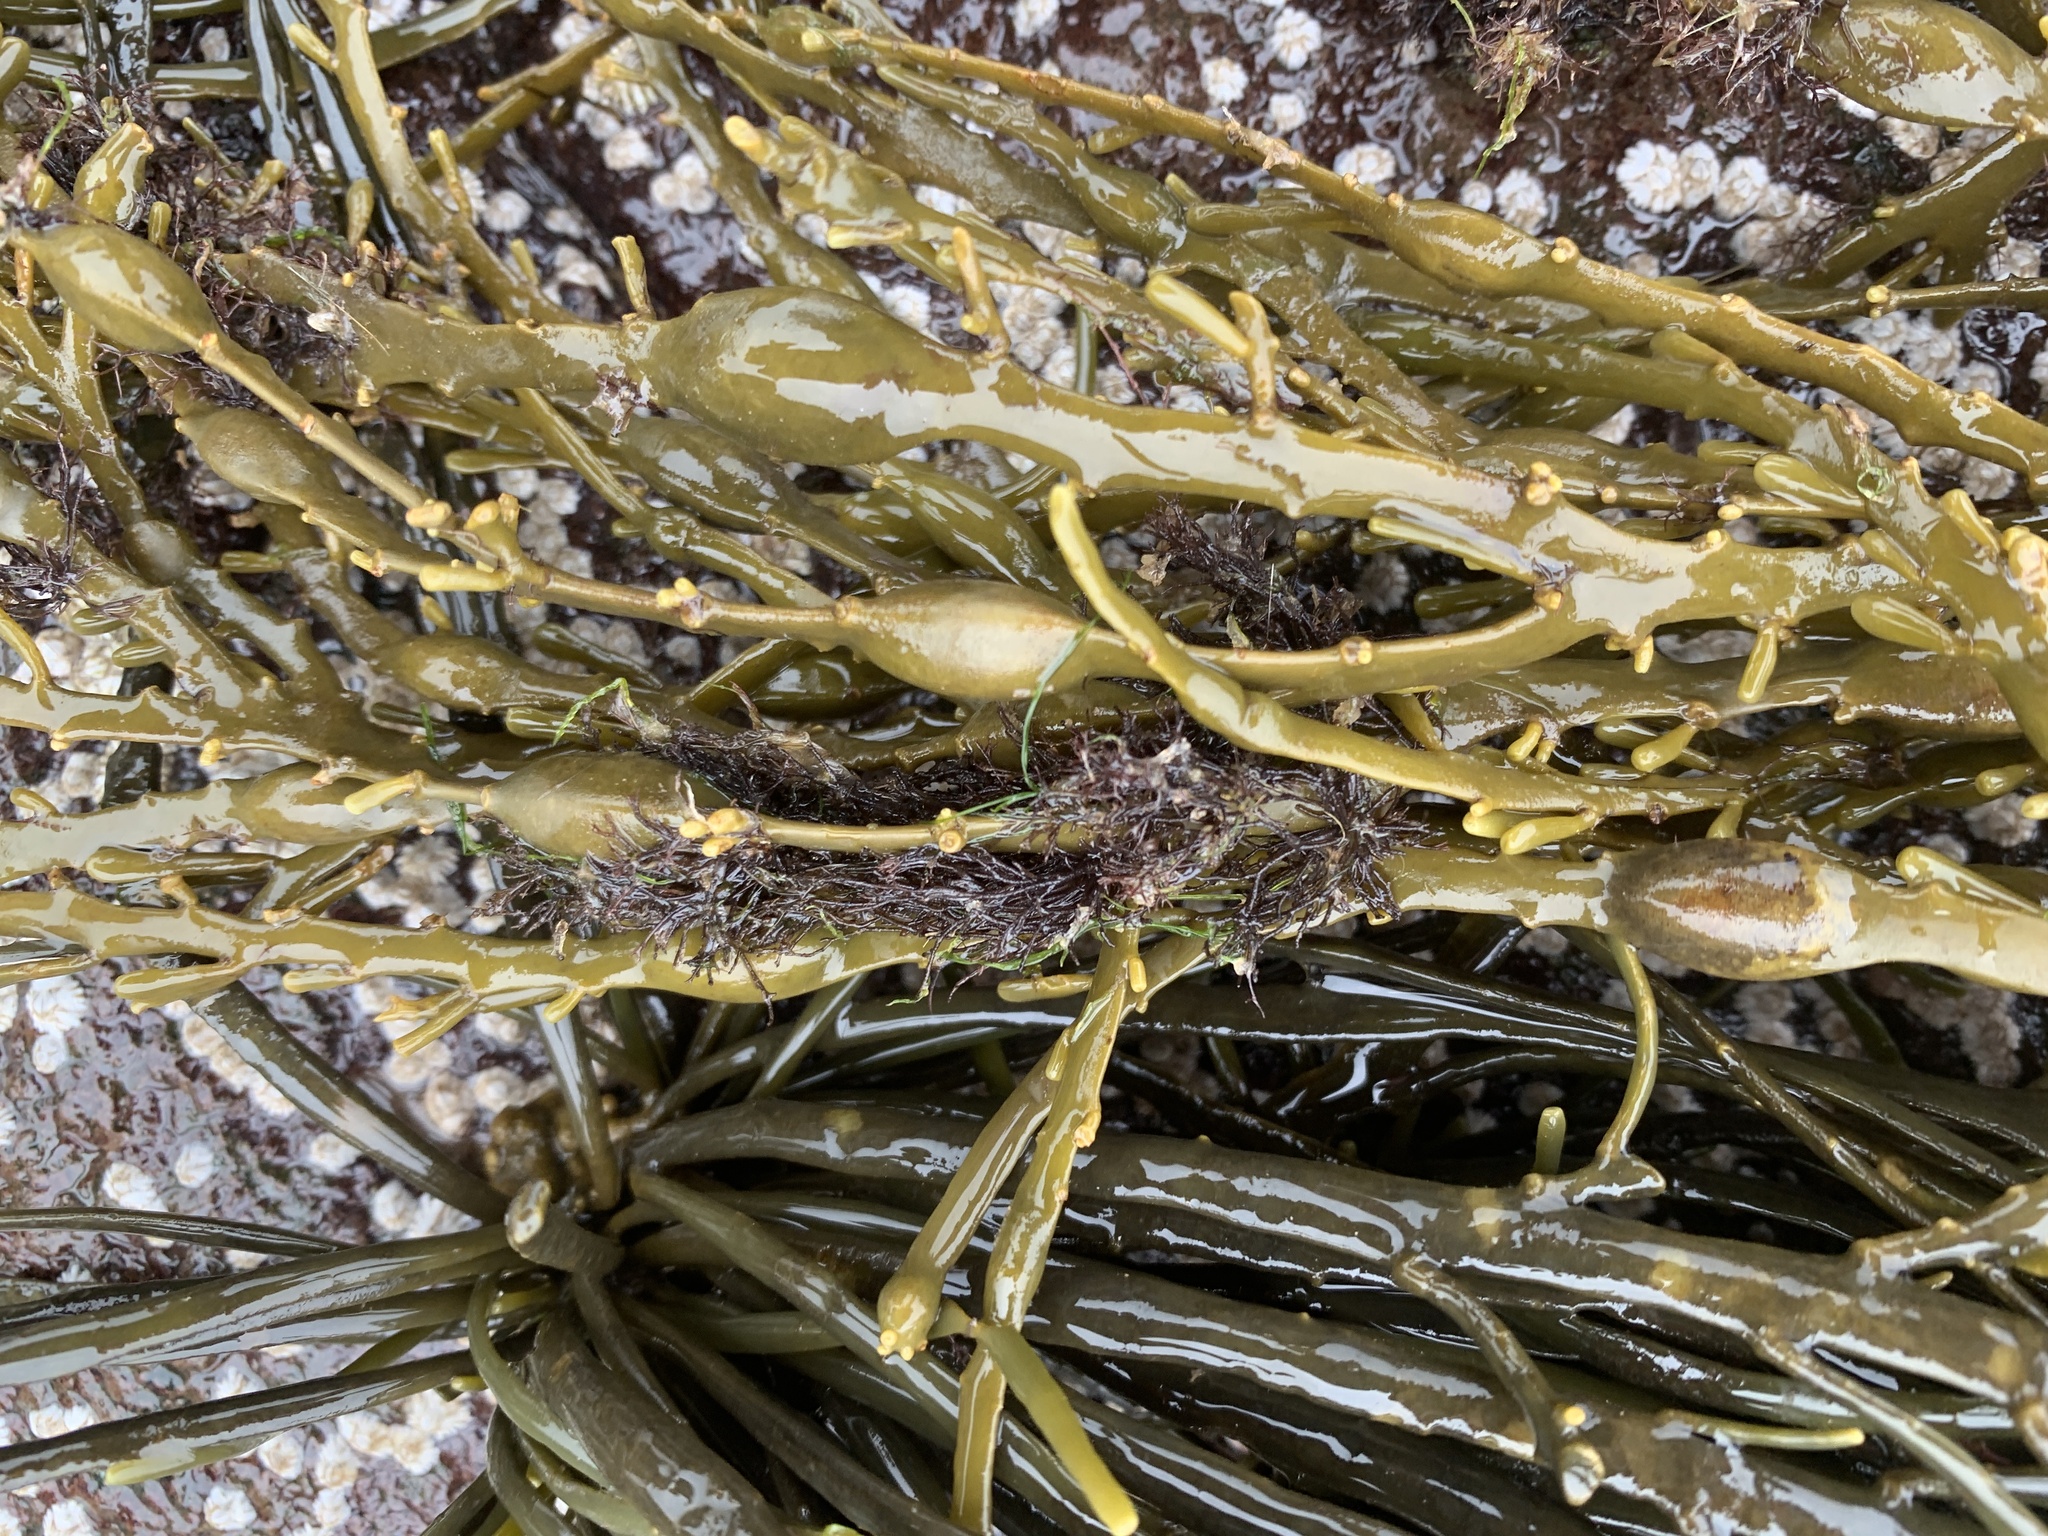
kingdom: Plantae
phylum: Rhodophyta
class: Florideophyceae
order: Ceramiales
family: Rhodomelaceae
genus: Vertebrata
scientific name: Vertebrata lanosa
